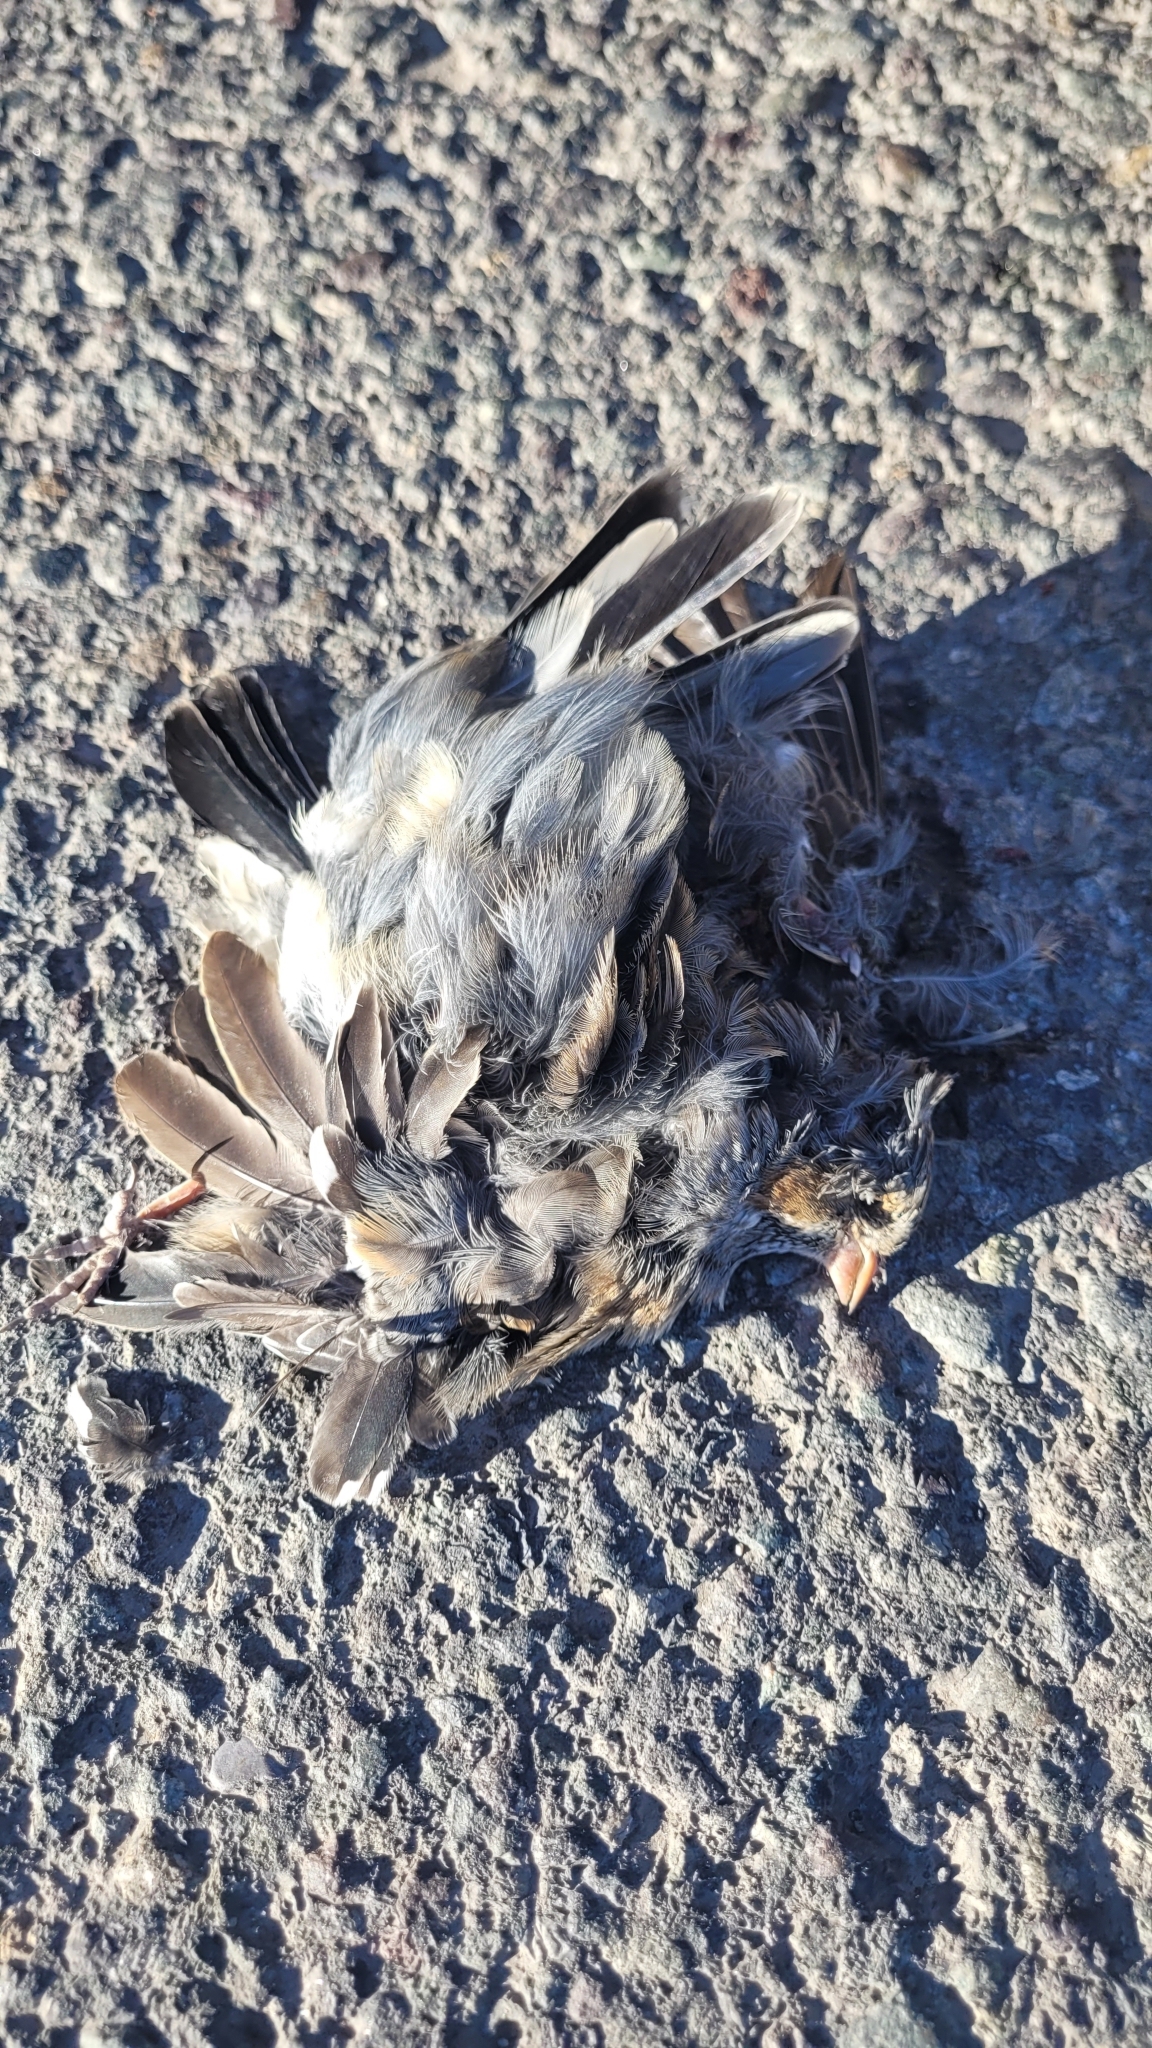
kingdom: Animalia
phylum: Chordata
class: Aves
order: Passeriformes
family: Thraupidae
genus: Rhopospina
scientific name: Rhopospina fruticeti
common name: Mourning sierra finch
